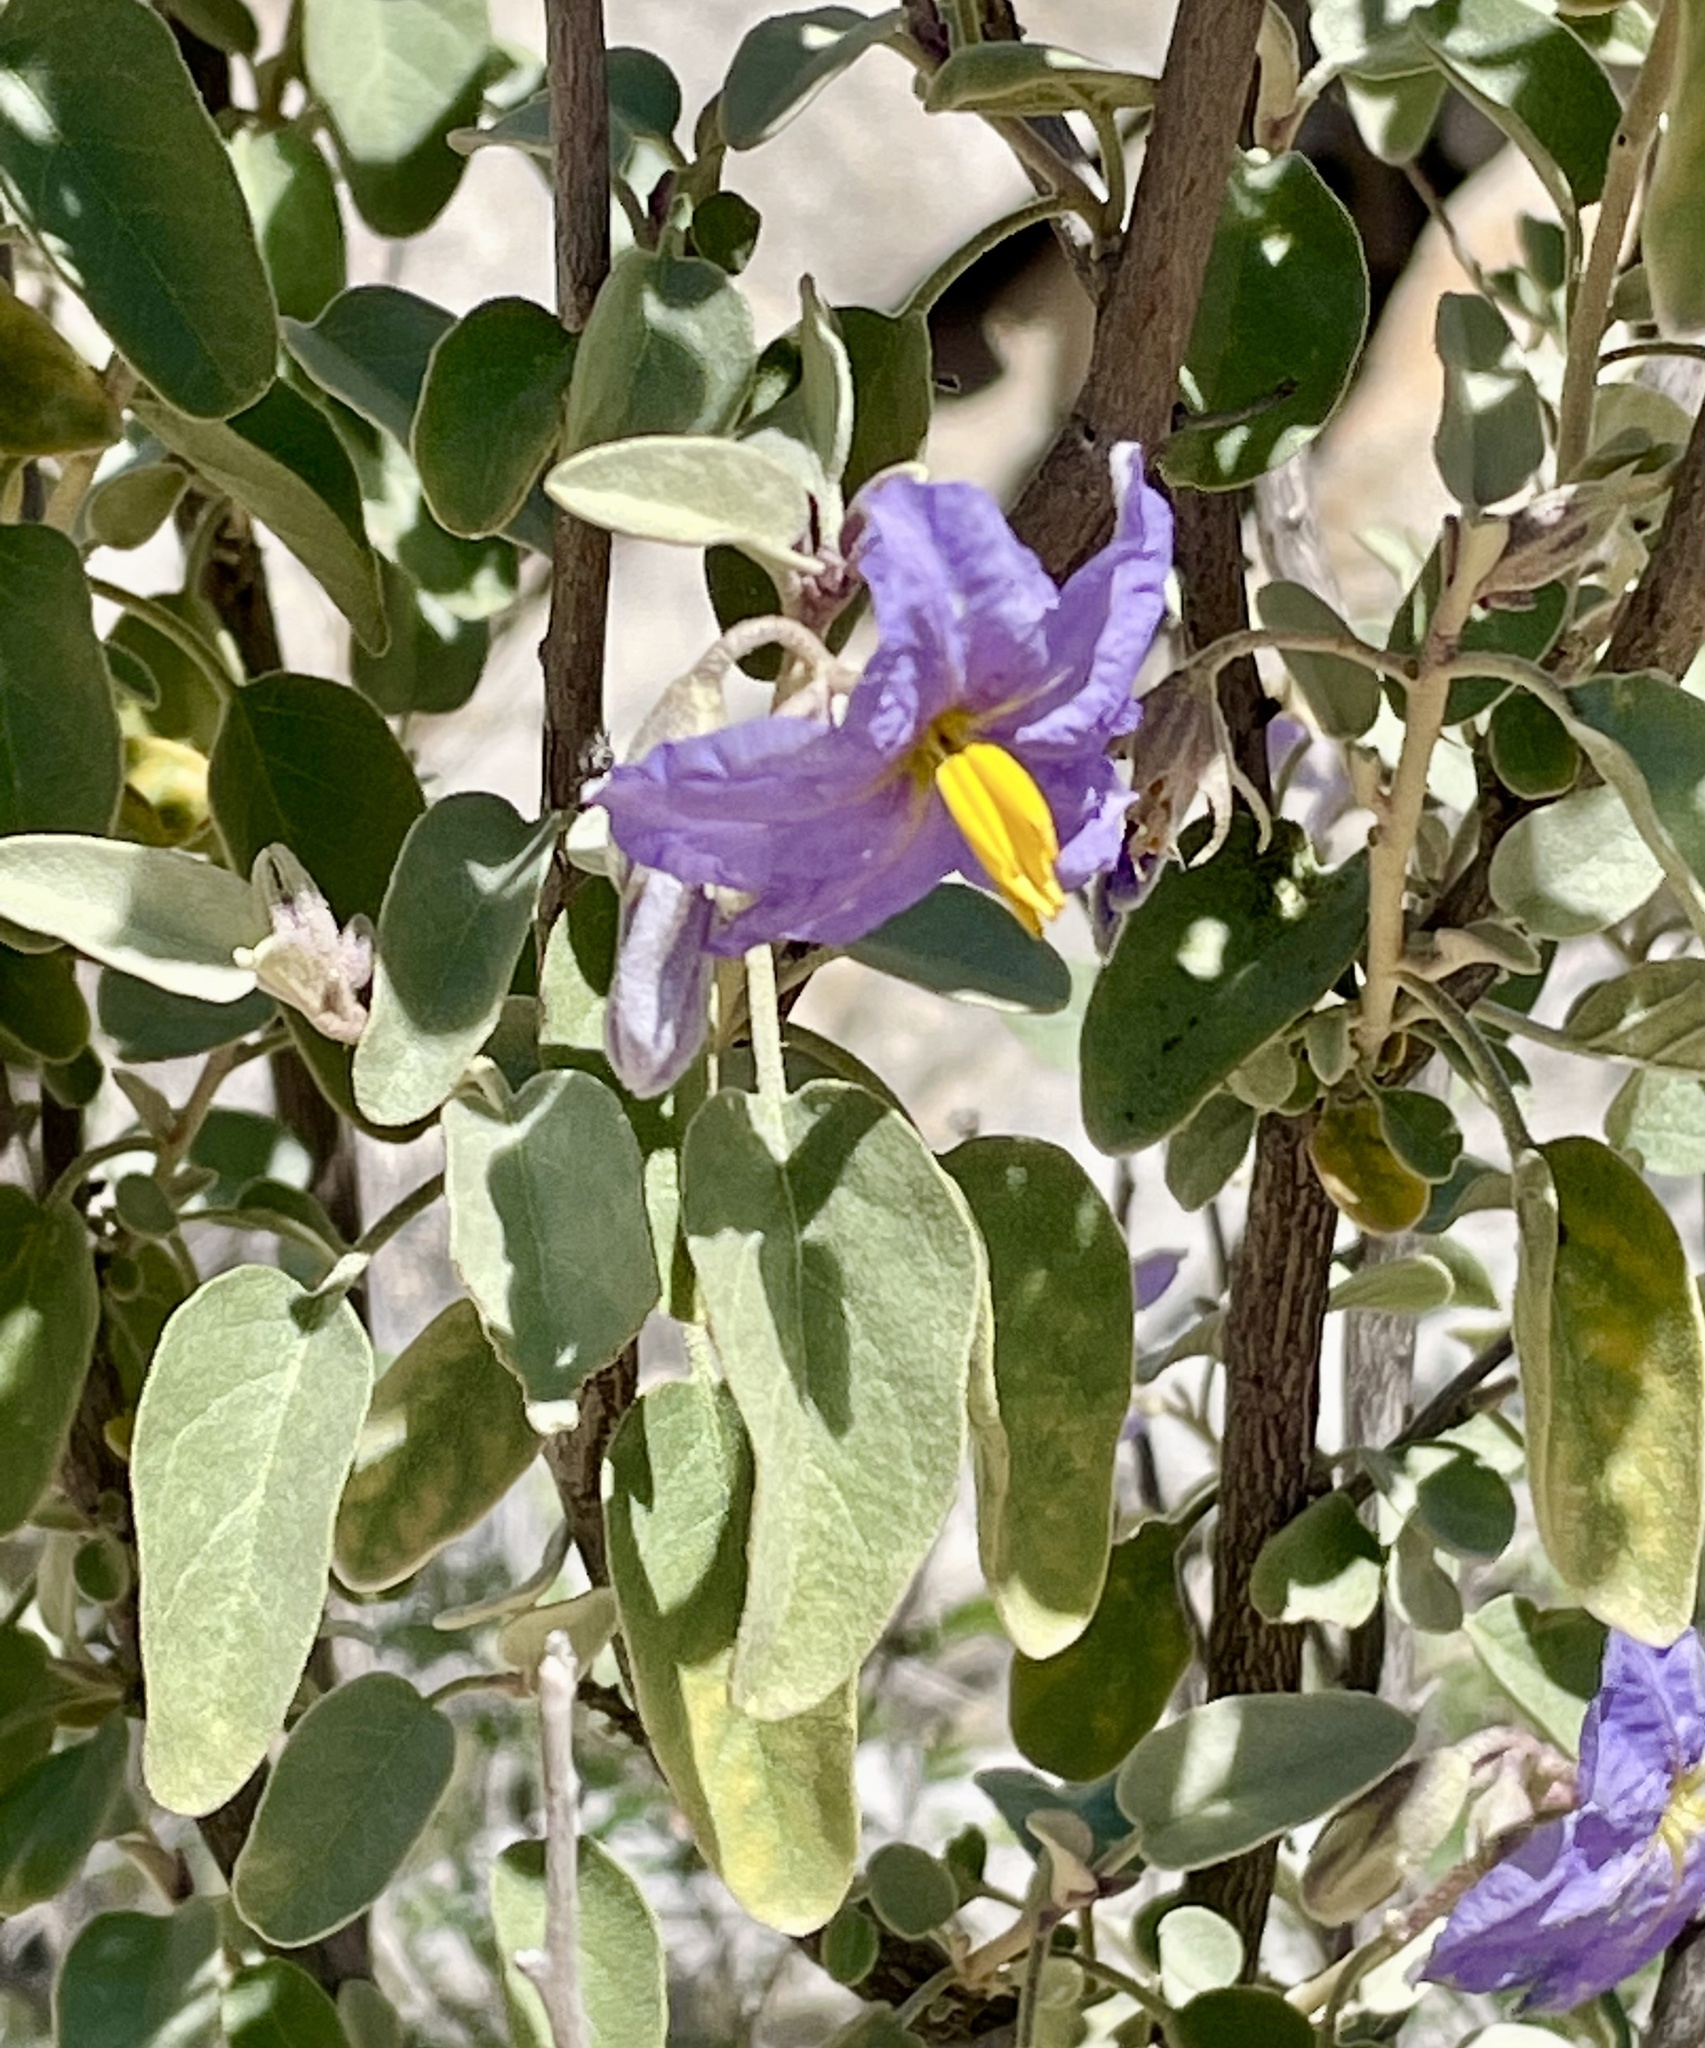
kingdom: Plantae
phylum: Tracheophyta
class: Magnoliopsida
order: Solanales
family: Solanaceae
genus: Solanum
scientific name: Solanum hindsianum
